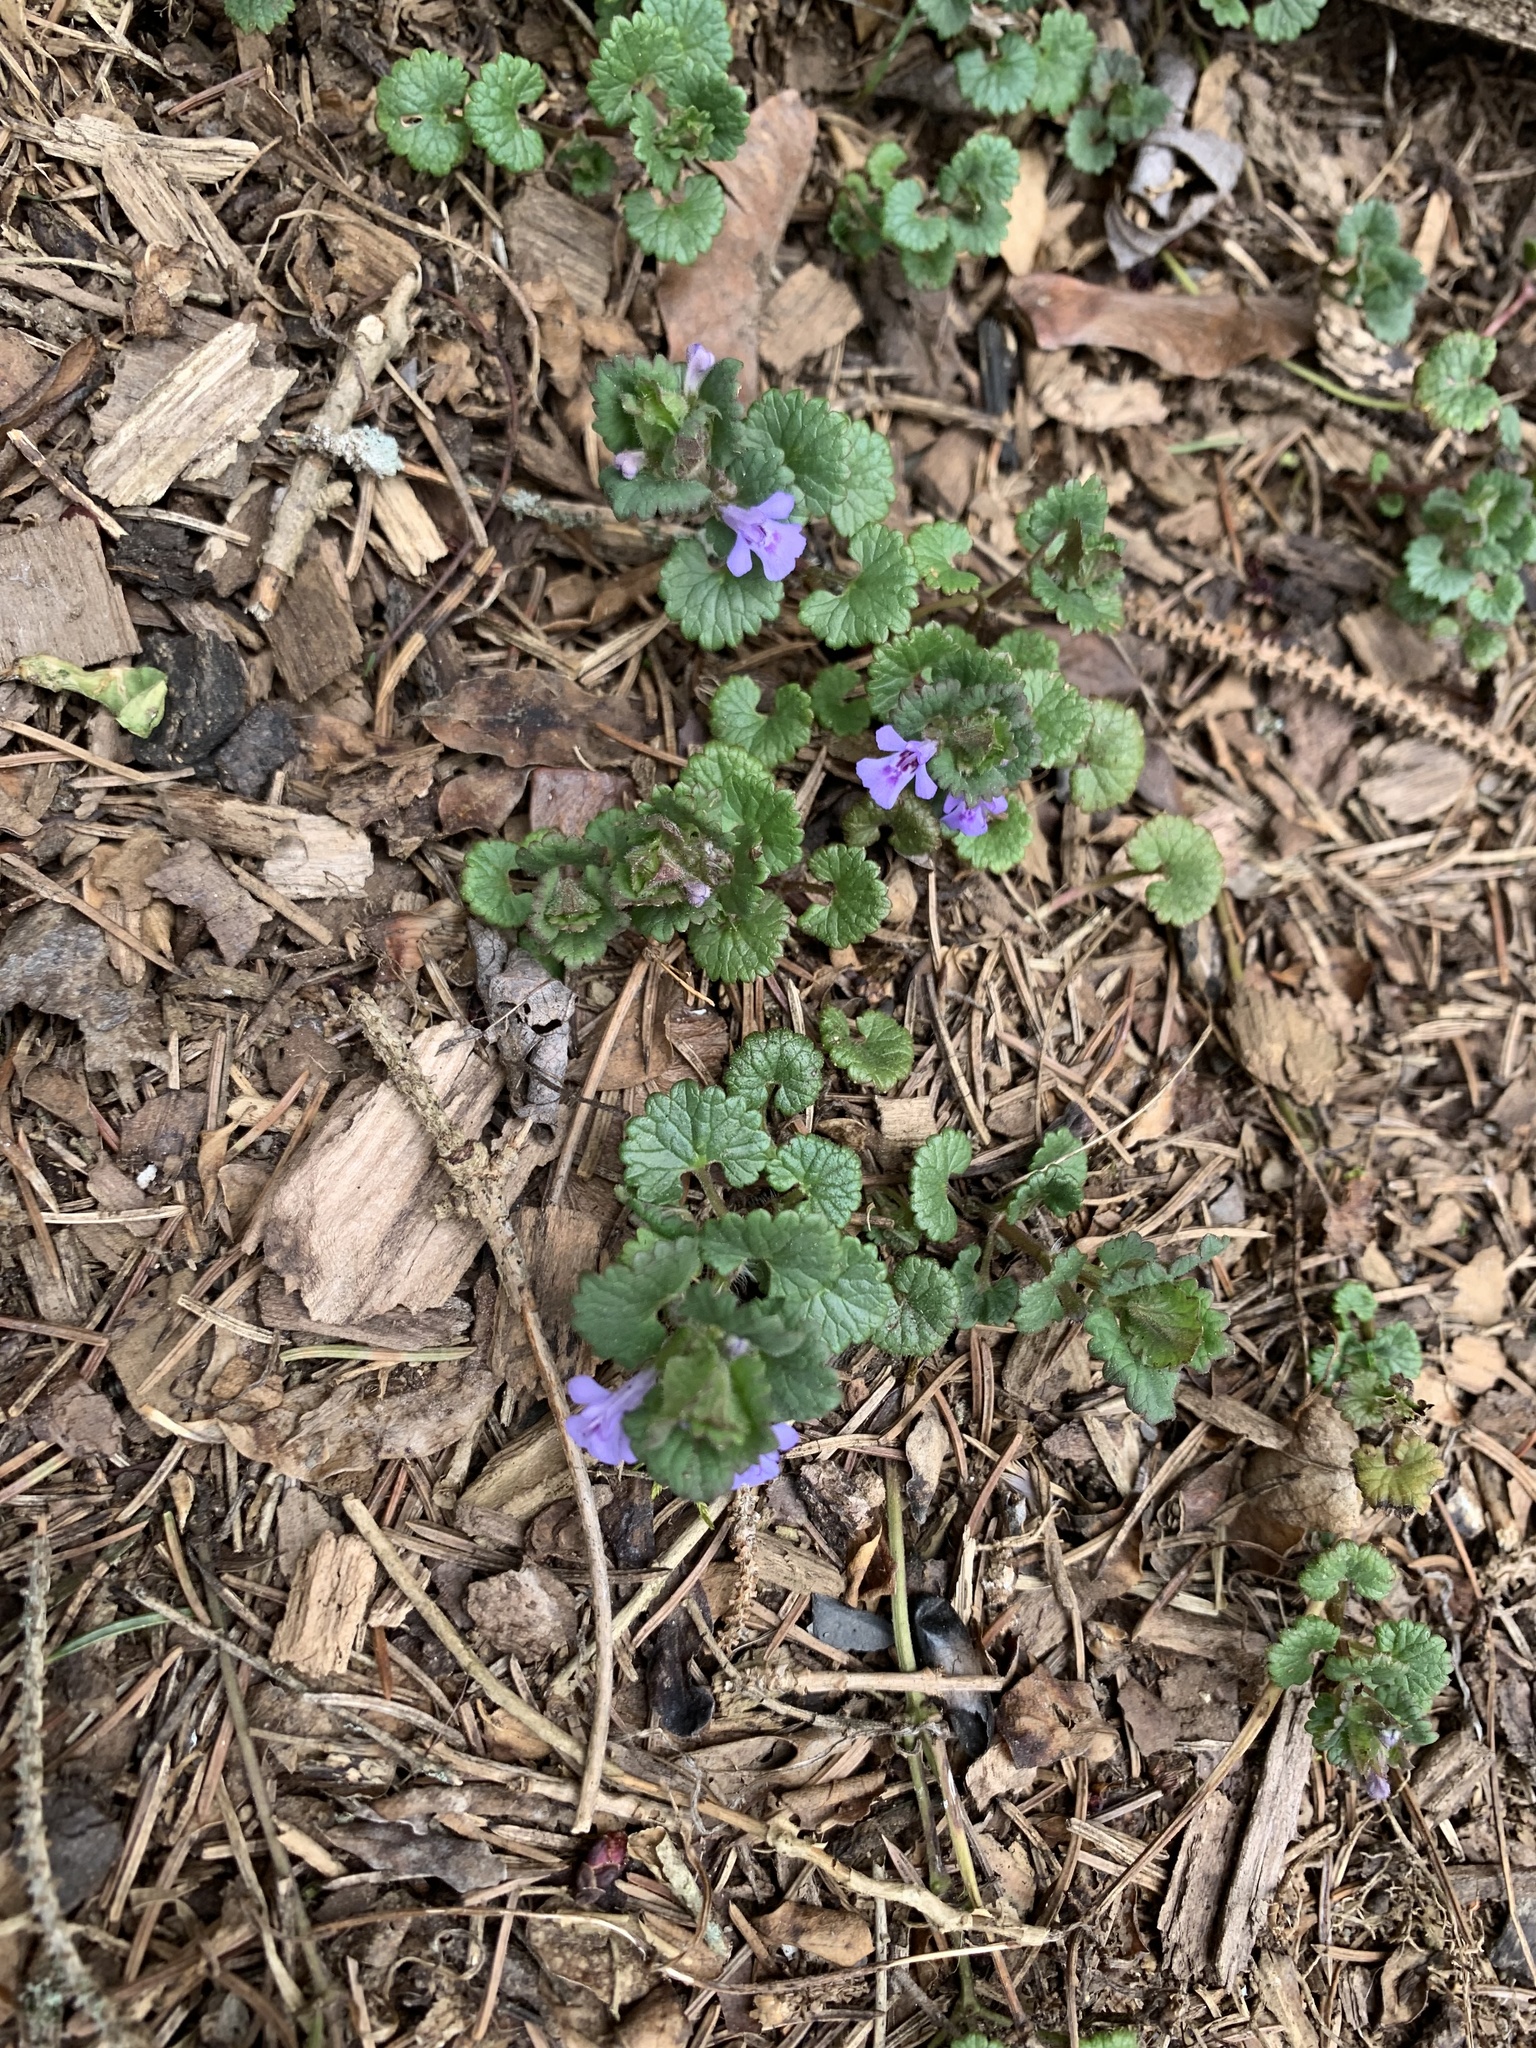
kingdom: Plantae
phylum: Tracheophyta
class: Magnoliopsida
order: Lamiales
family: Lamiaceae
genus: Glechoma
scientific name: Glechoma hederacea
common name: Ground ivy
